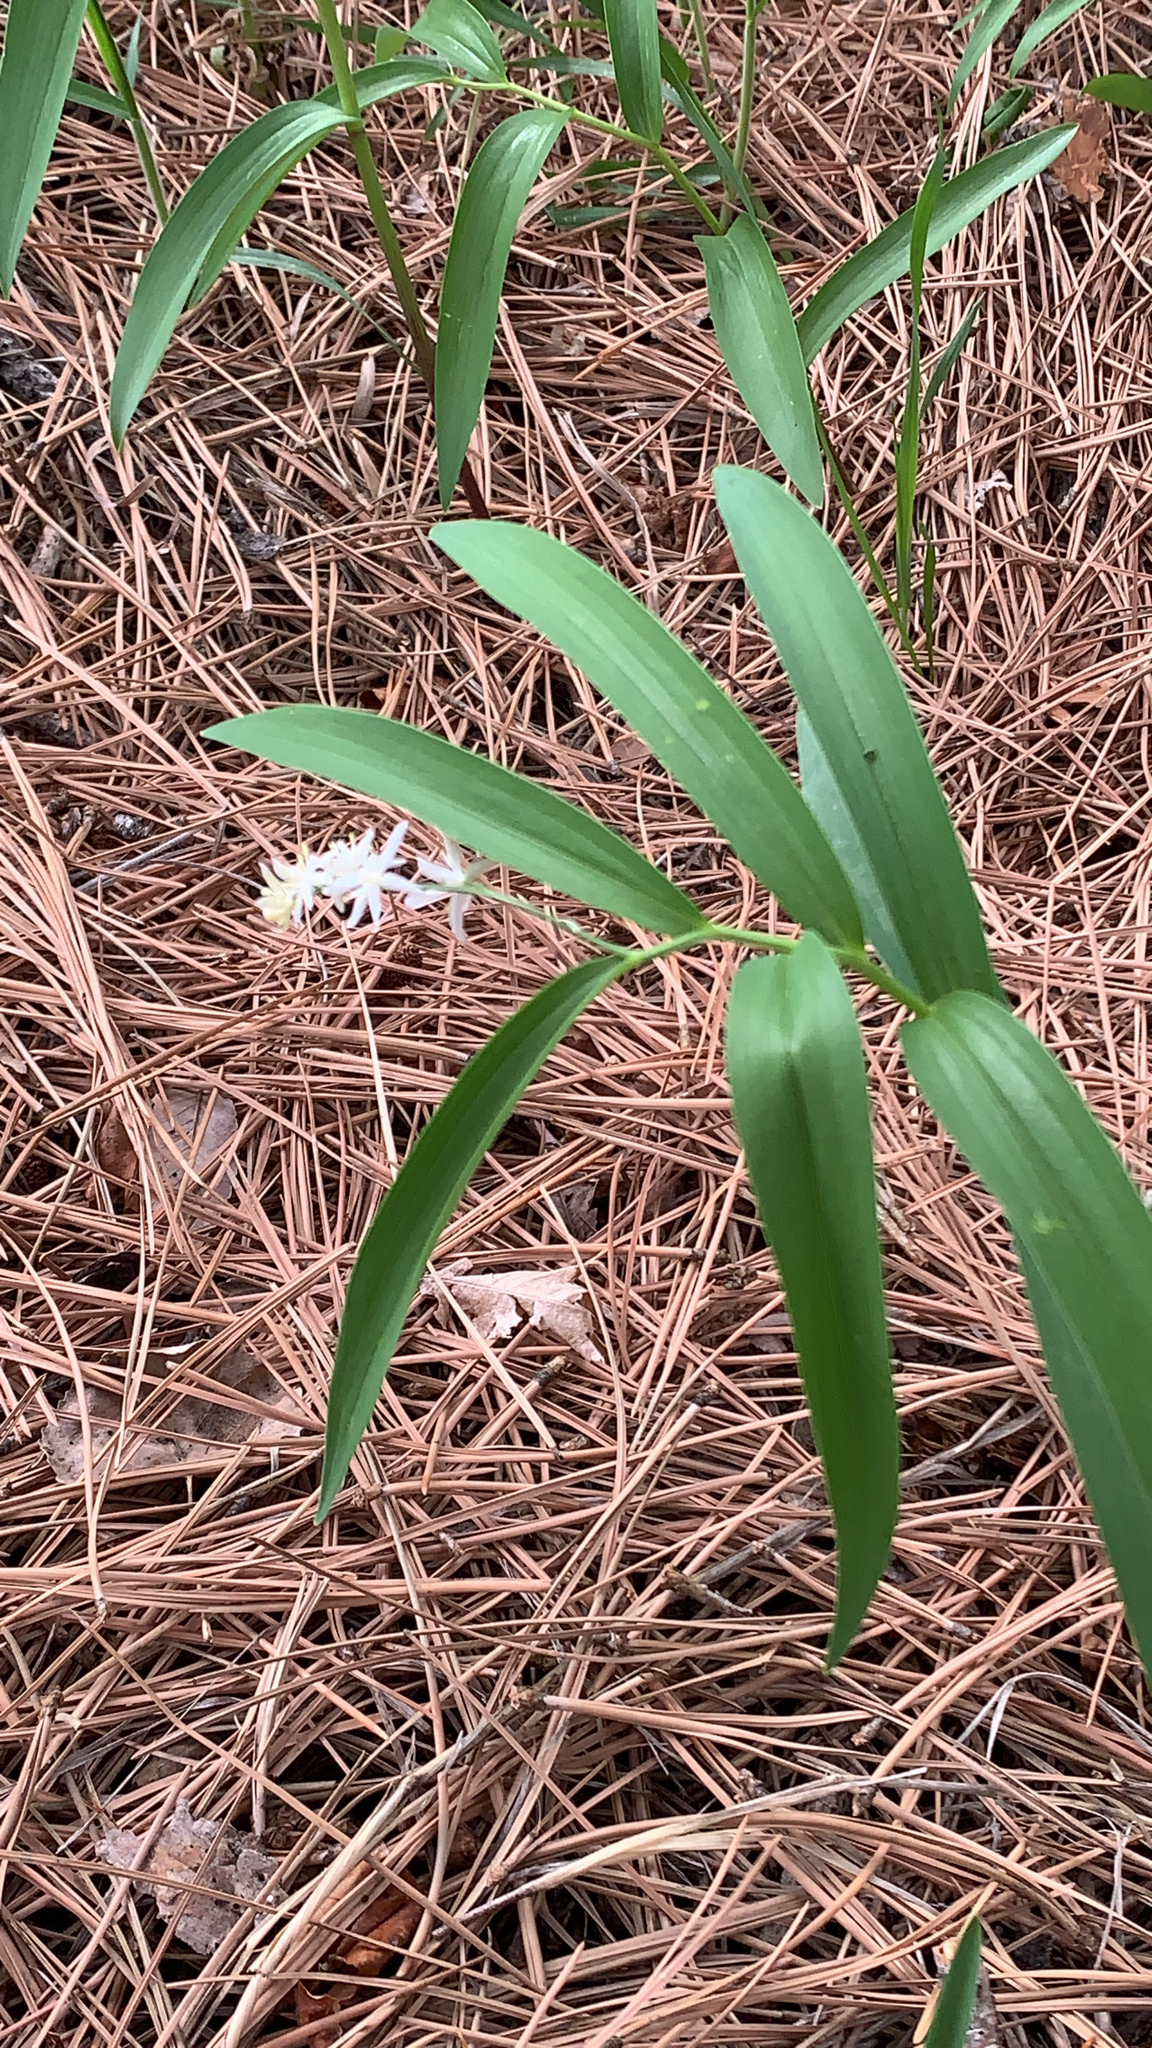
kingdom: Plantae
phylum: Tracheophyta
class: Liliopsida
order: Asparagales
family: Asparagaceae
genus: Maianthemum
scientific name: Maianthemum stellatum
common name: Little false solomon's seal
